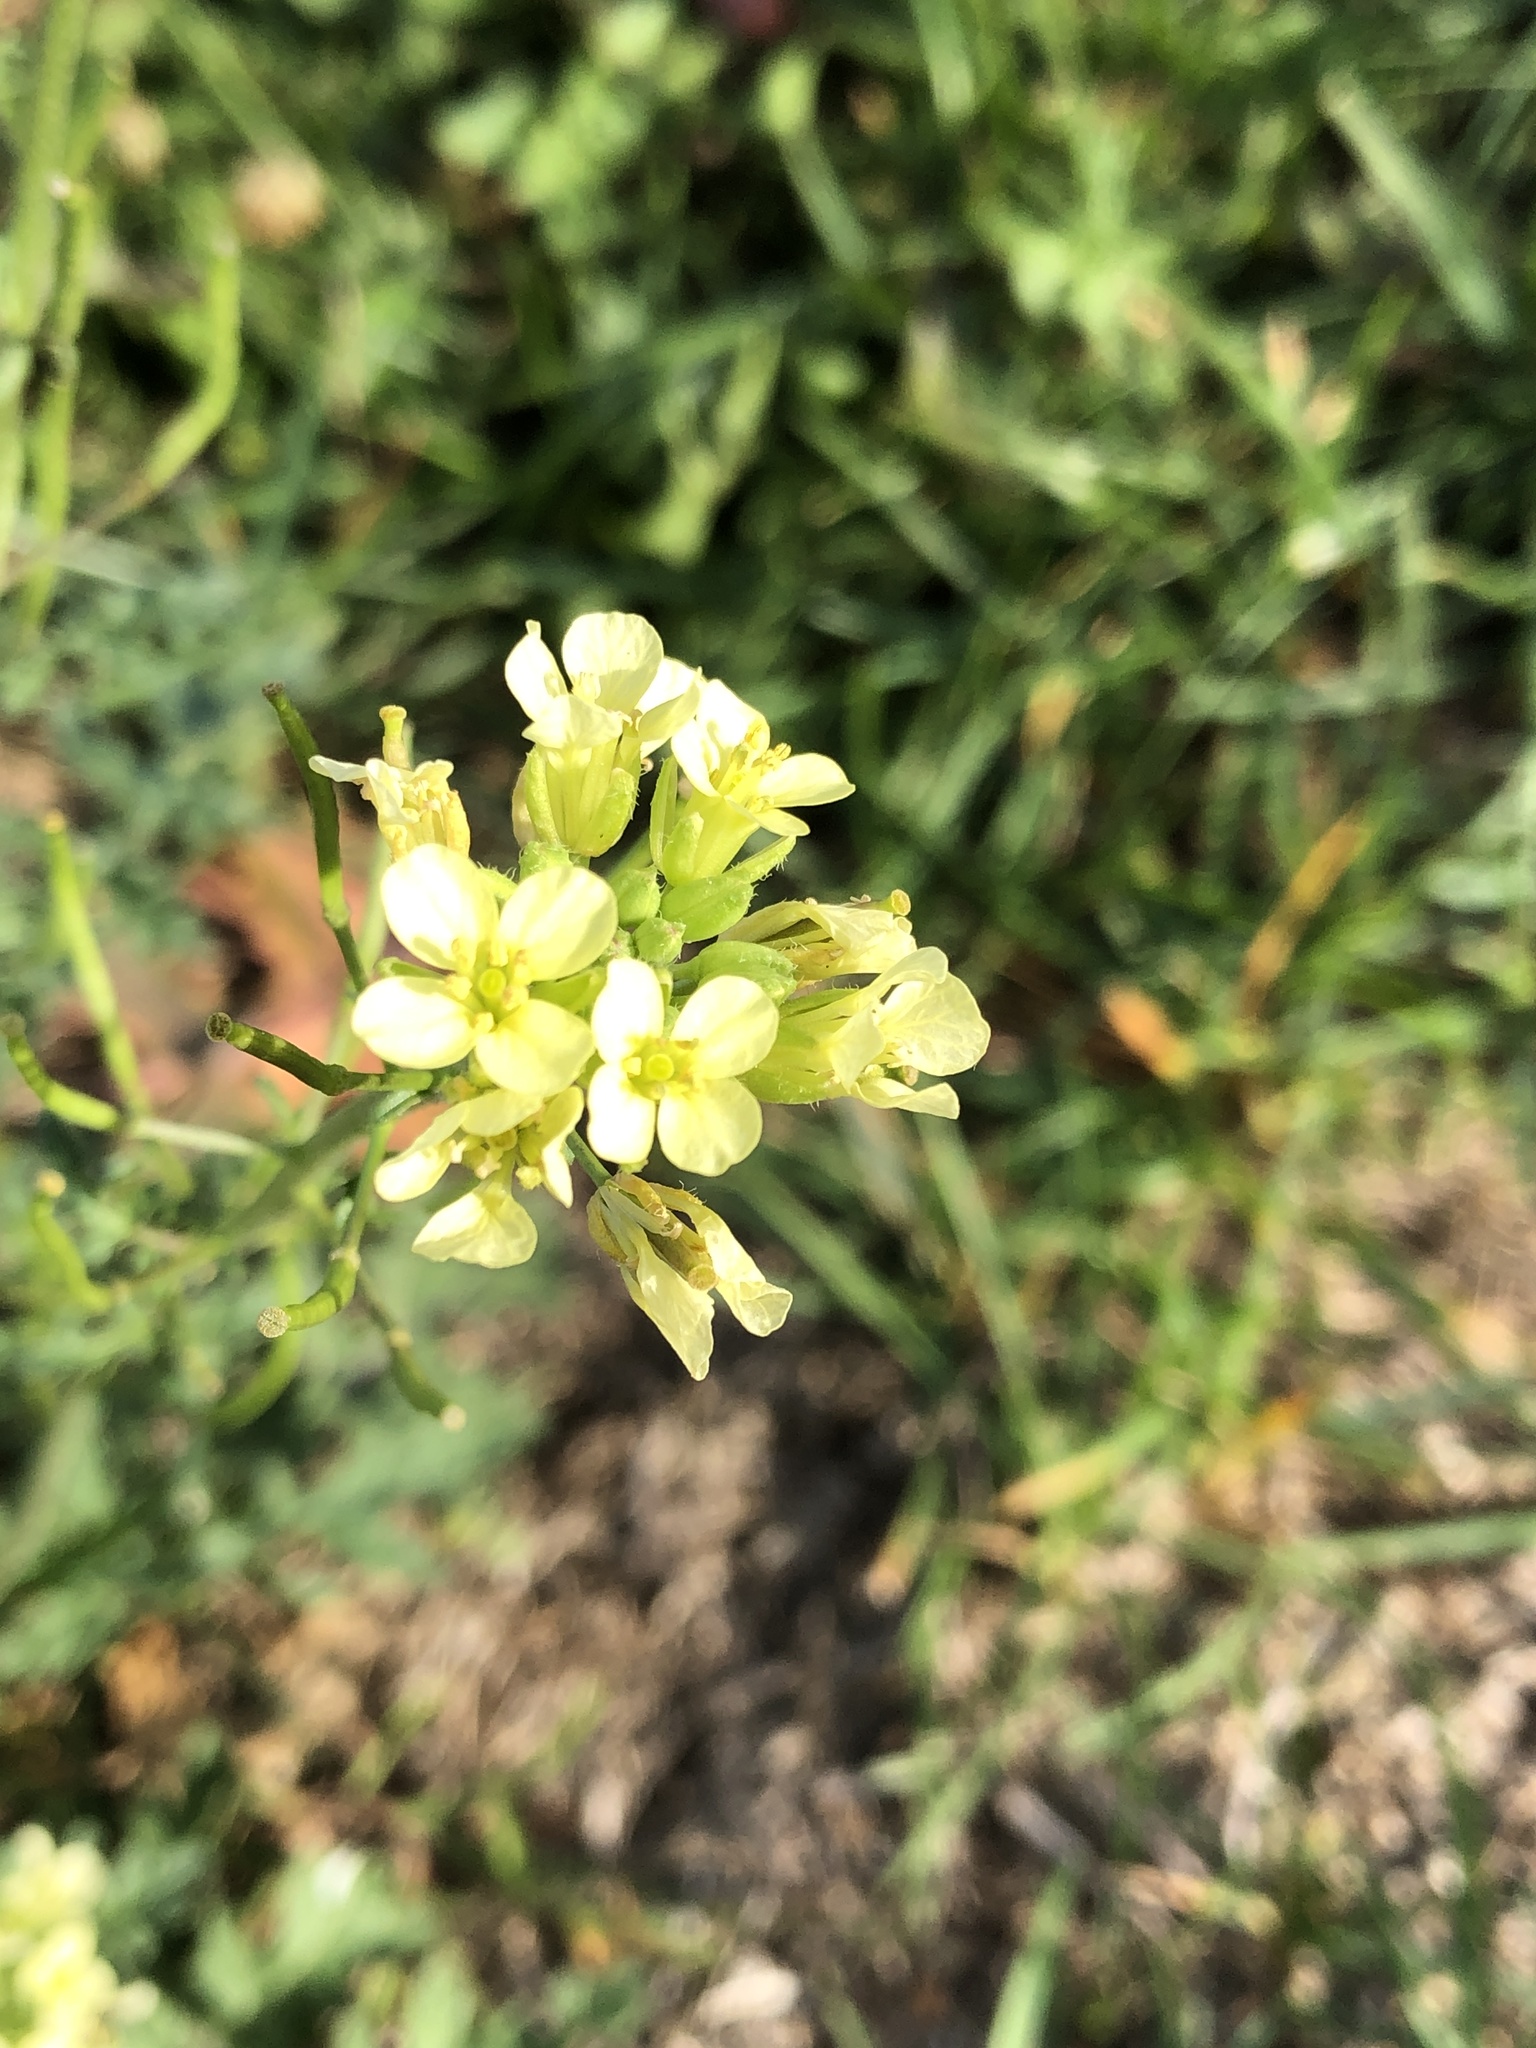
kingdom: Plantae
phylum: Tracheophyta
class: Magnoliopsida
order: Brassicales
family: Brassicaceae
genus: Erucastrum
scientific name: Erucastrum gallicum
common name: Hairy rocket
